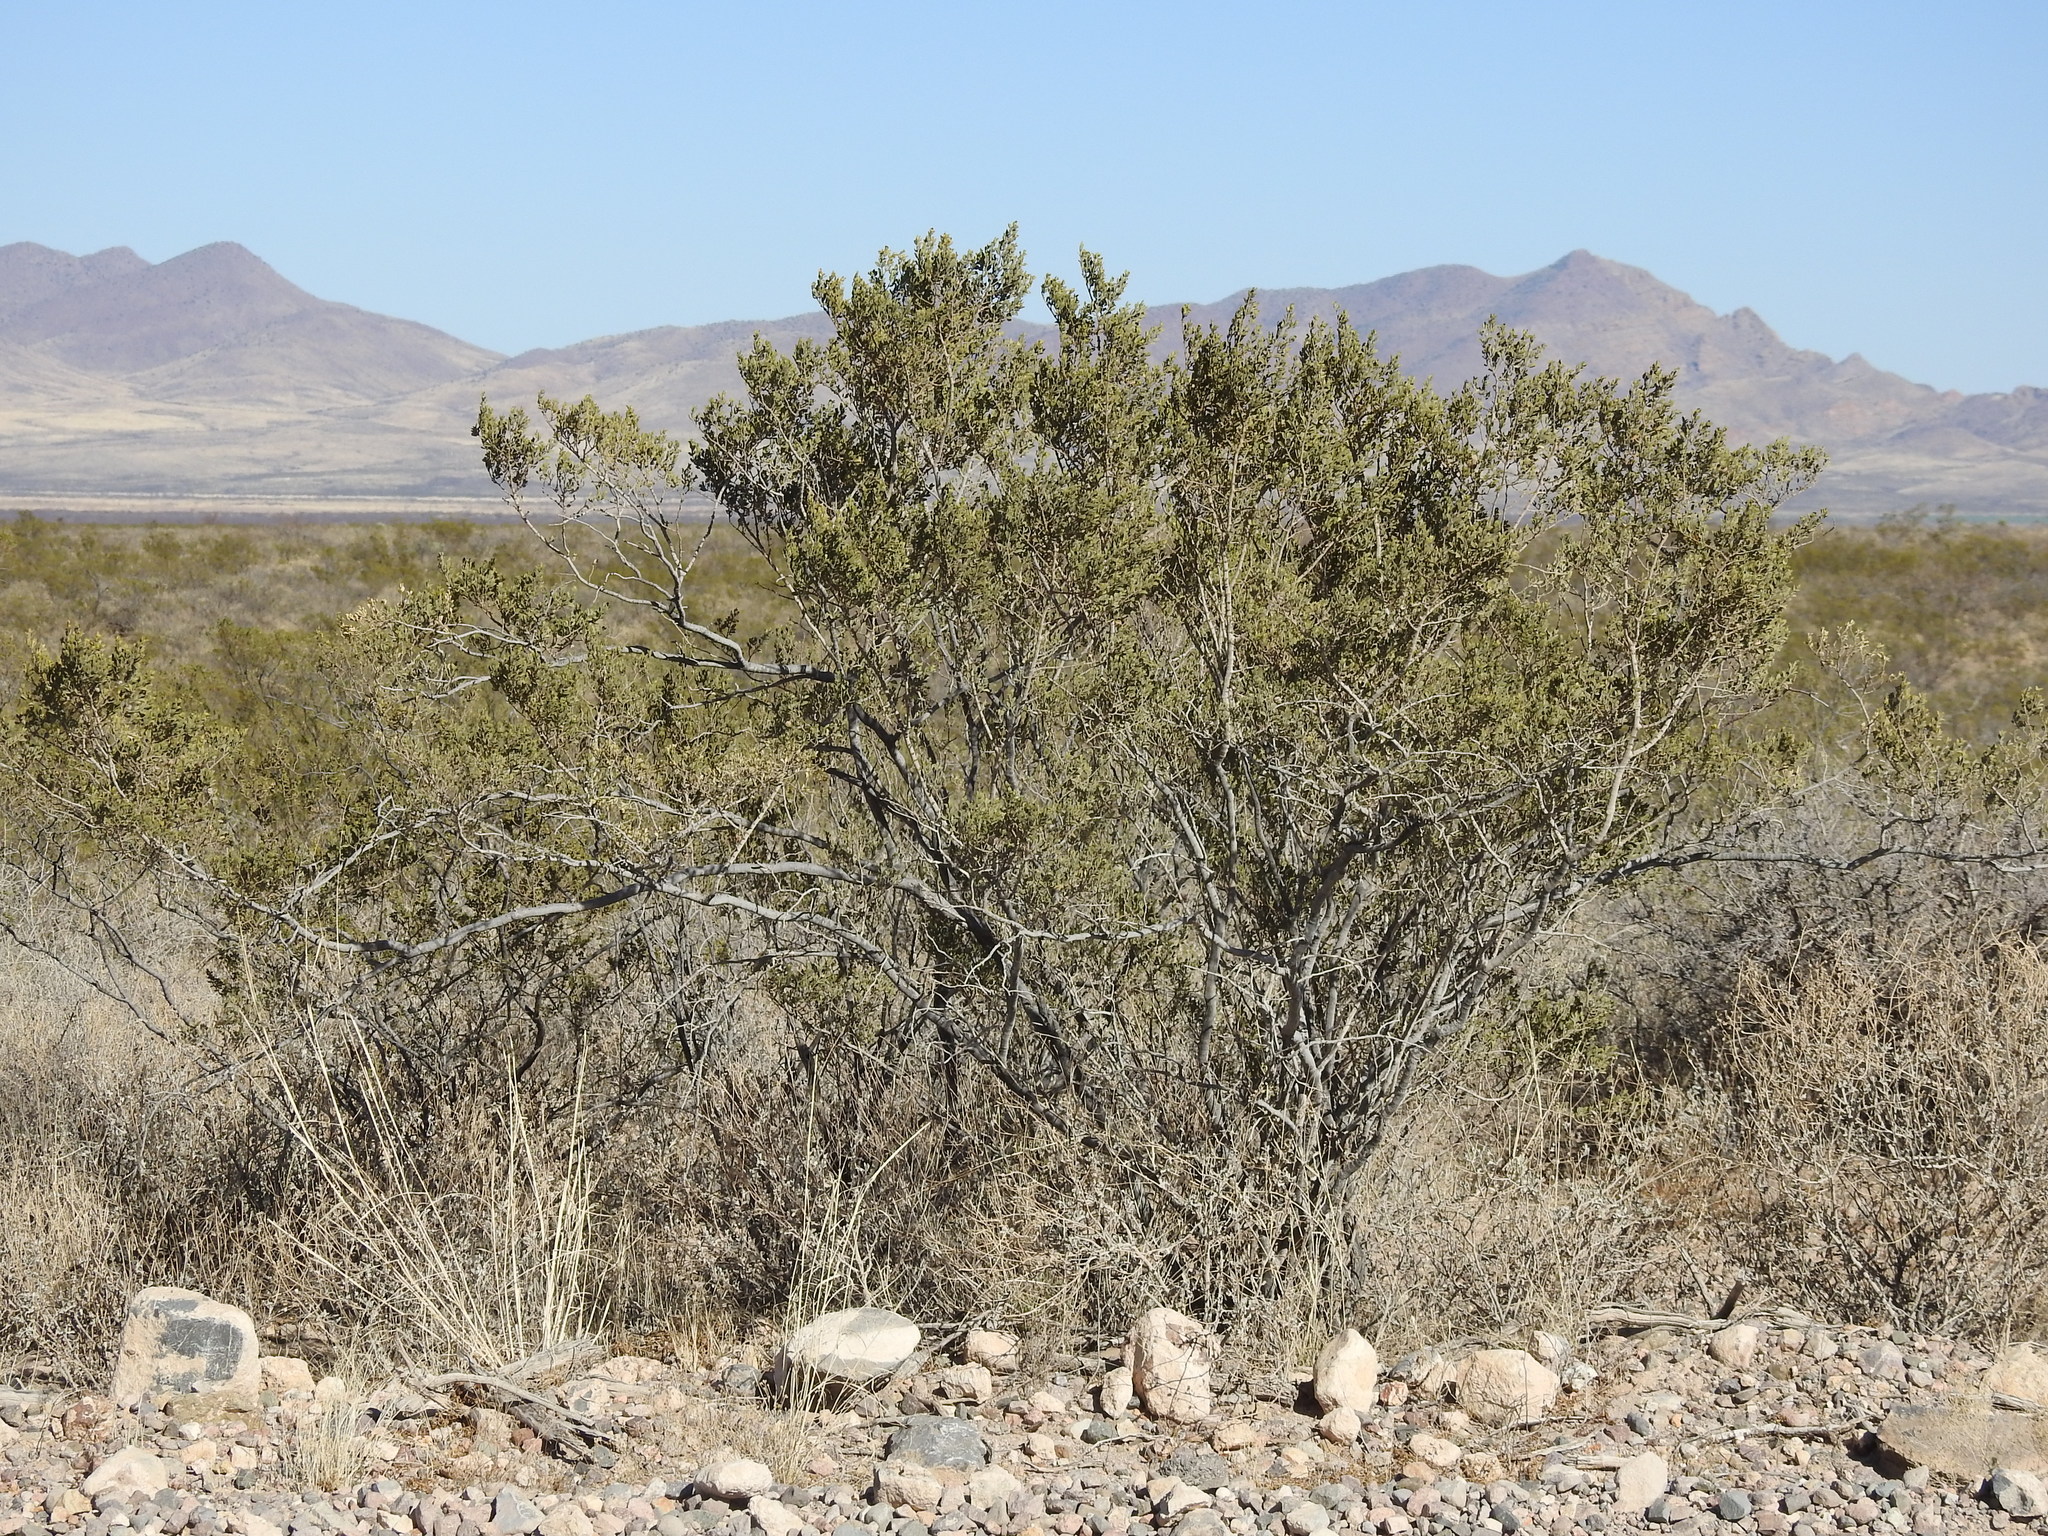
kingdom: Plantae
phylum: Tracheophyta
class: Magnoliopsida
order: Zygophyllales
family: Zygophyllaceae
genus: Larrea
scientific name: Larrea tridentata
